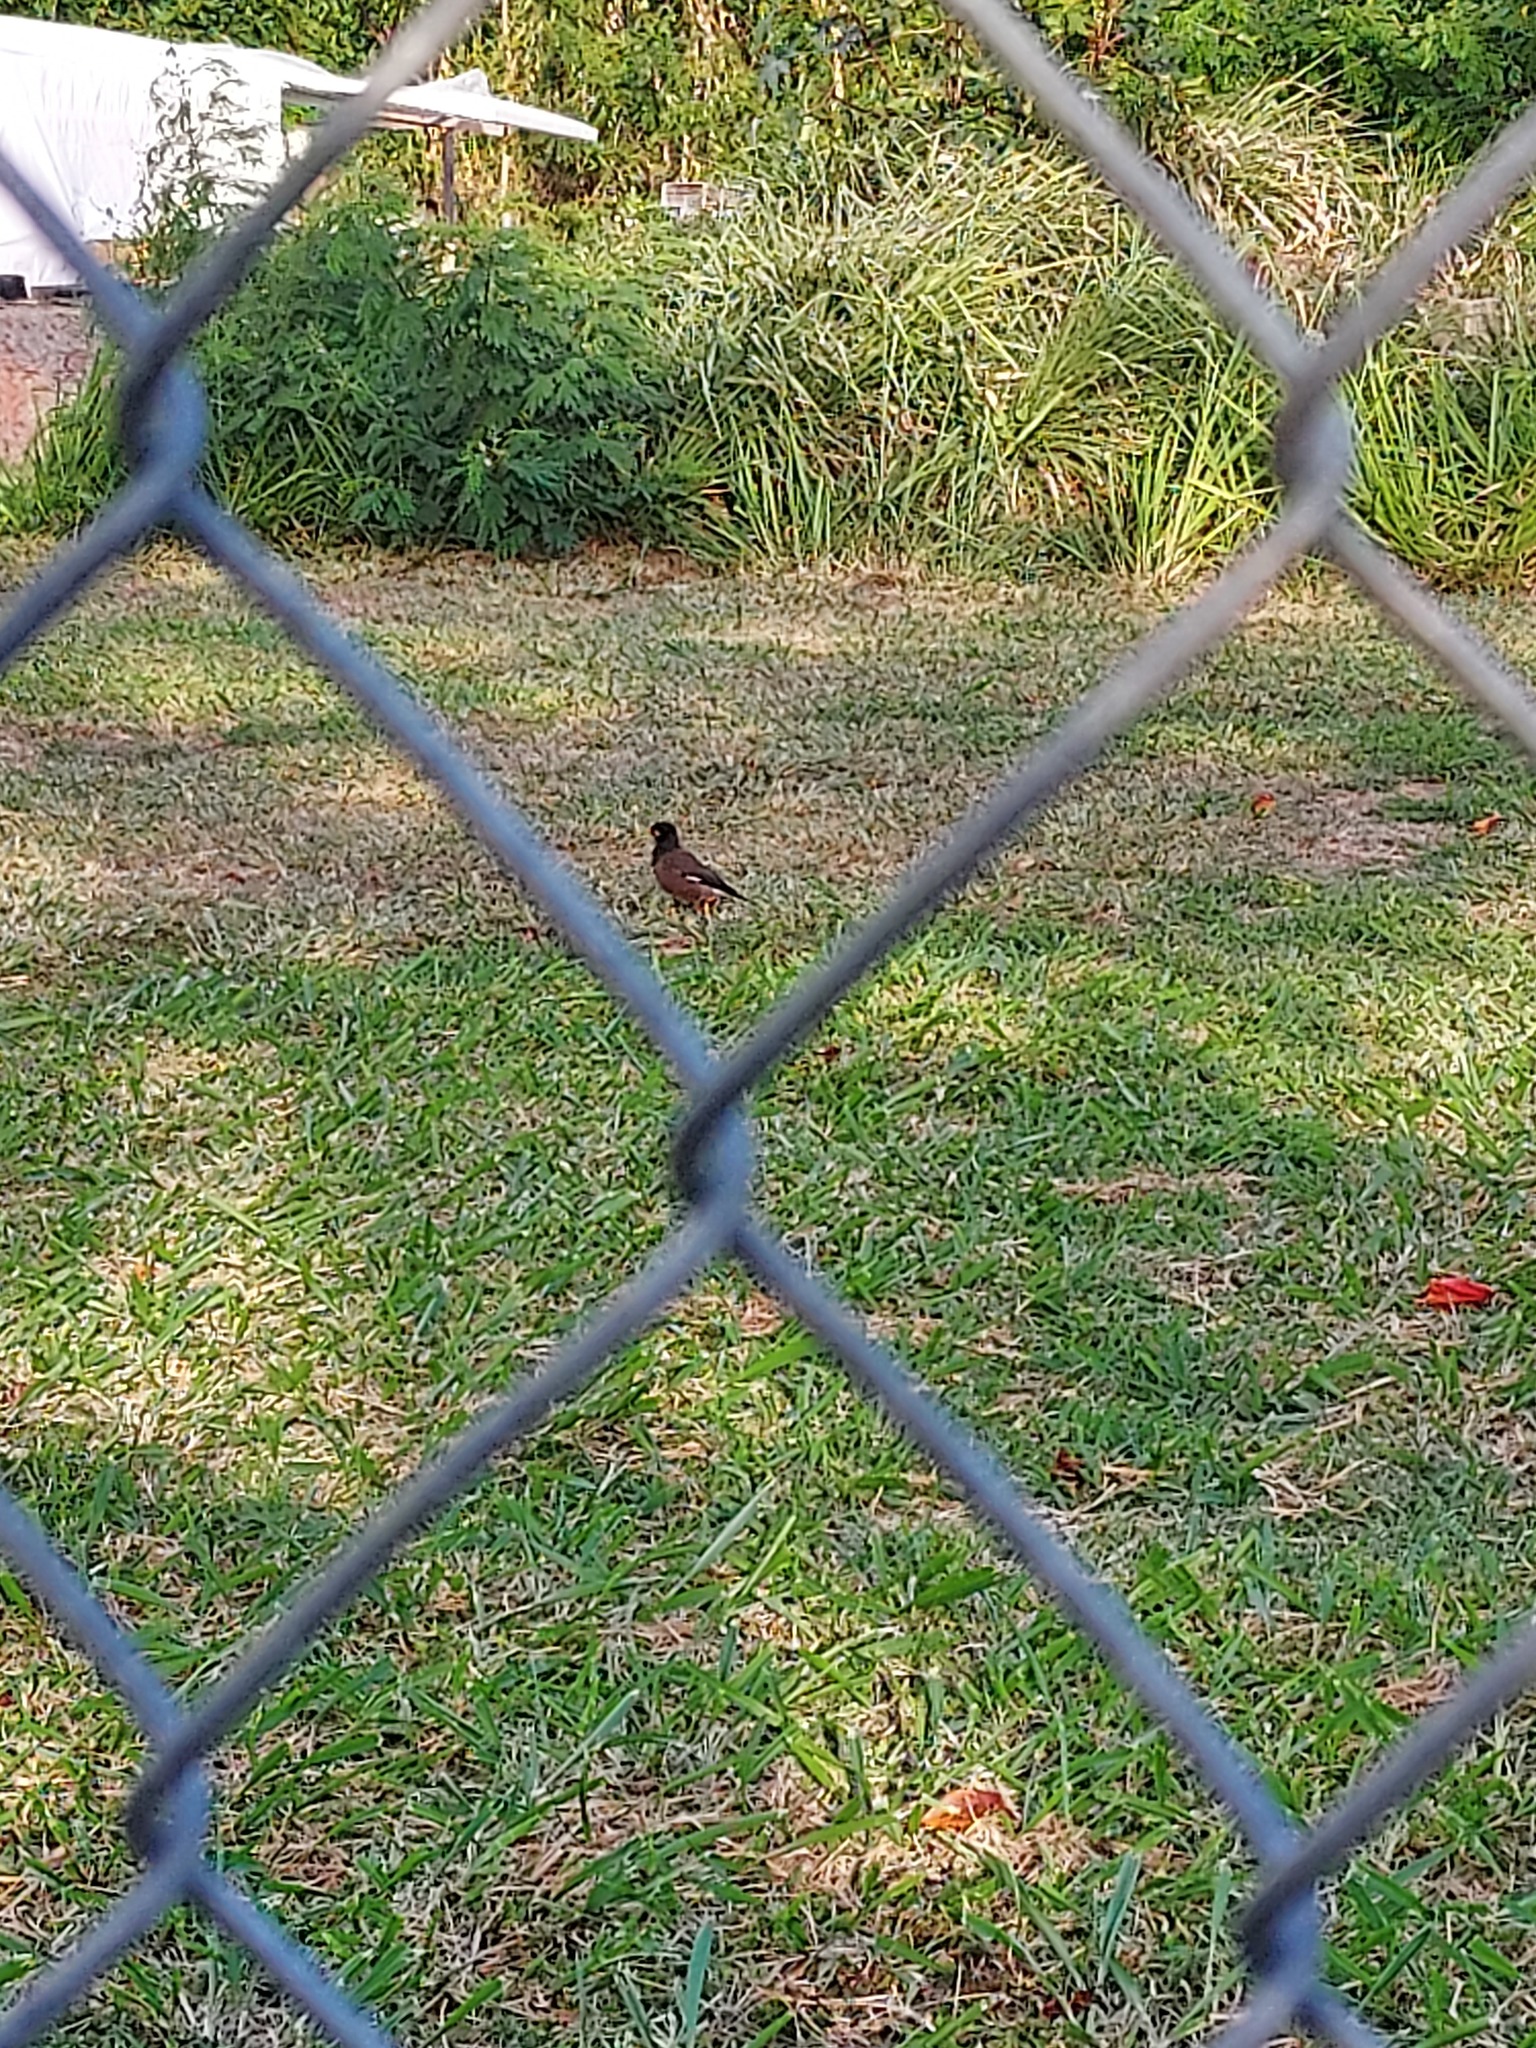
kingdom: Animalia
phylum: Chordata
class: Aves
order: Passeriformes
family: Sturnidae
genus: Acridotheres
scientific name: Acridotheres tristis
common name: Common myna
